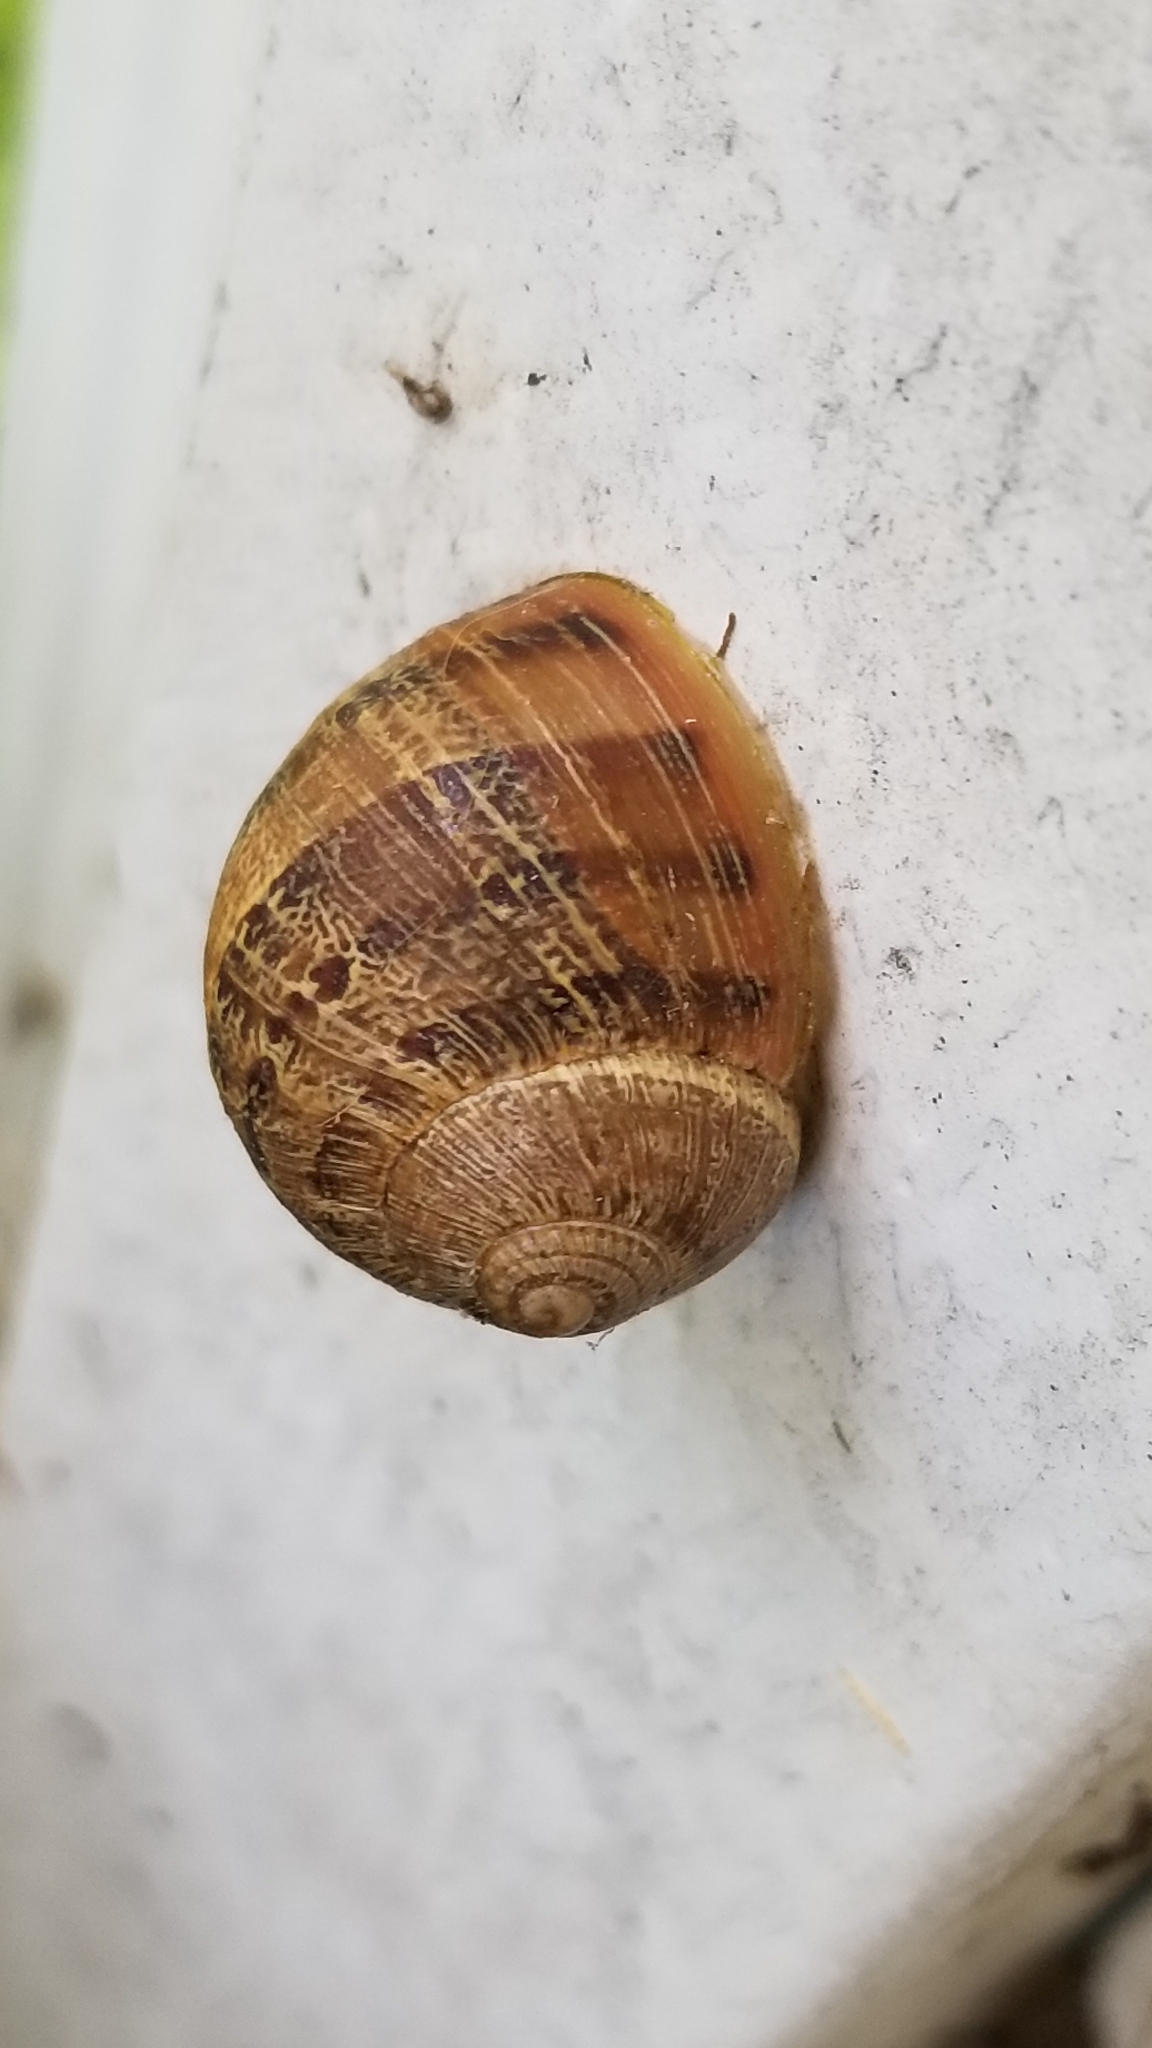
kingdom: Animalia
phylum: Mollusca
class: Gastropoda
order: Stylommatophora
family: Helicidae
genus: Cornu
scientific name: Cornu aspersum
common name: Brown garden snail
